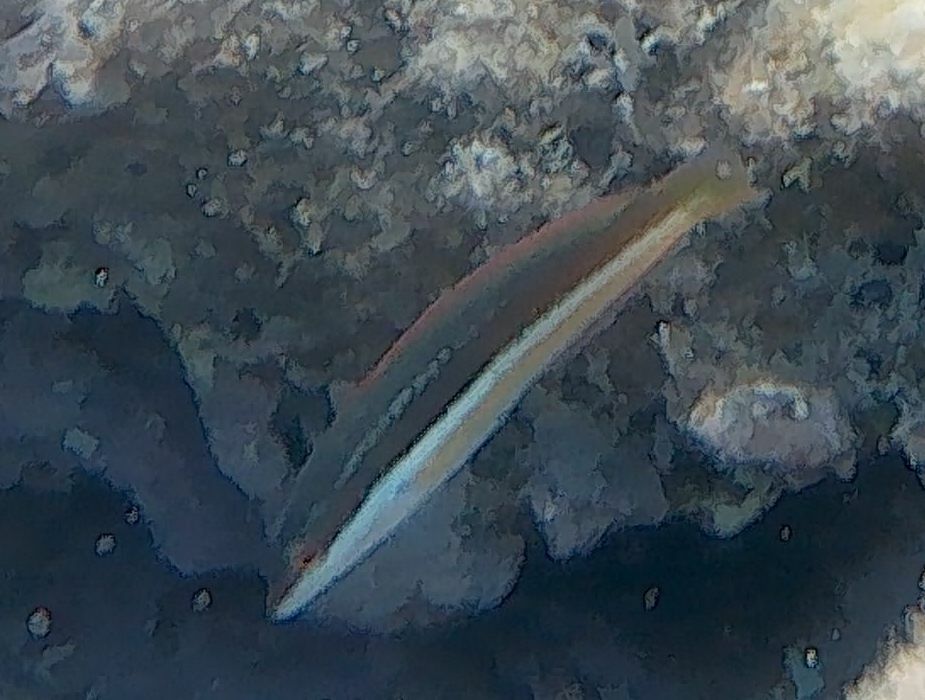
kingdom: Animalia
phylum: Chordata
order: Perciformes
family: Labridae
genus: Coris
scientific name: Coris julis
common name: Rainbow wrasse
